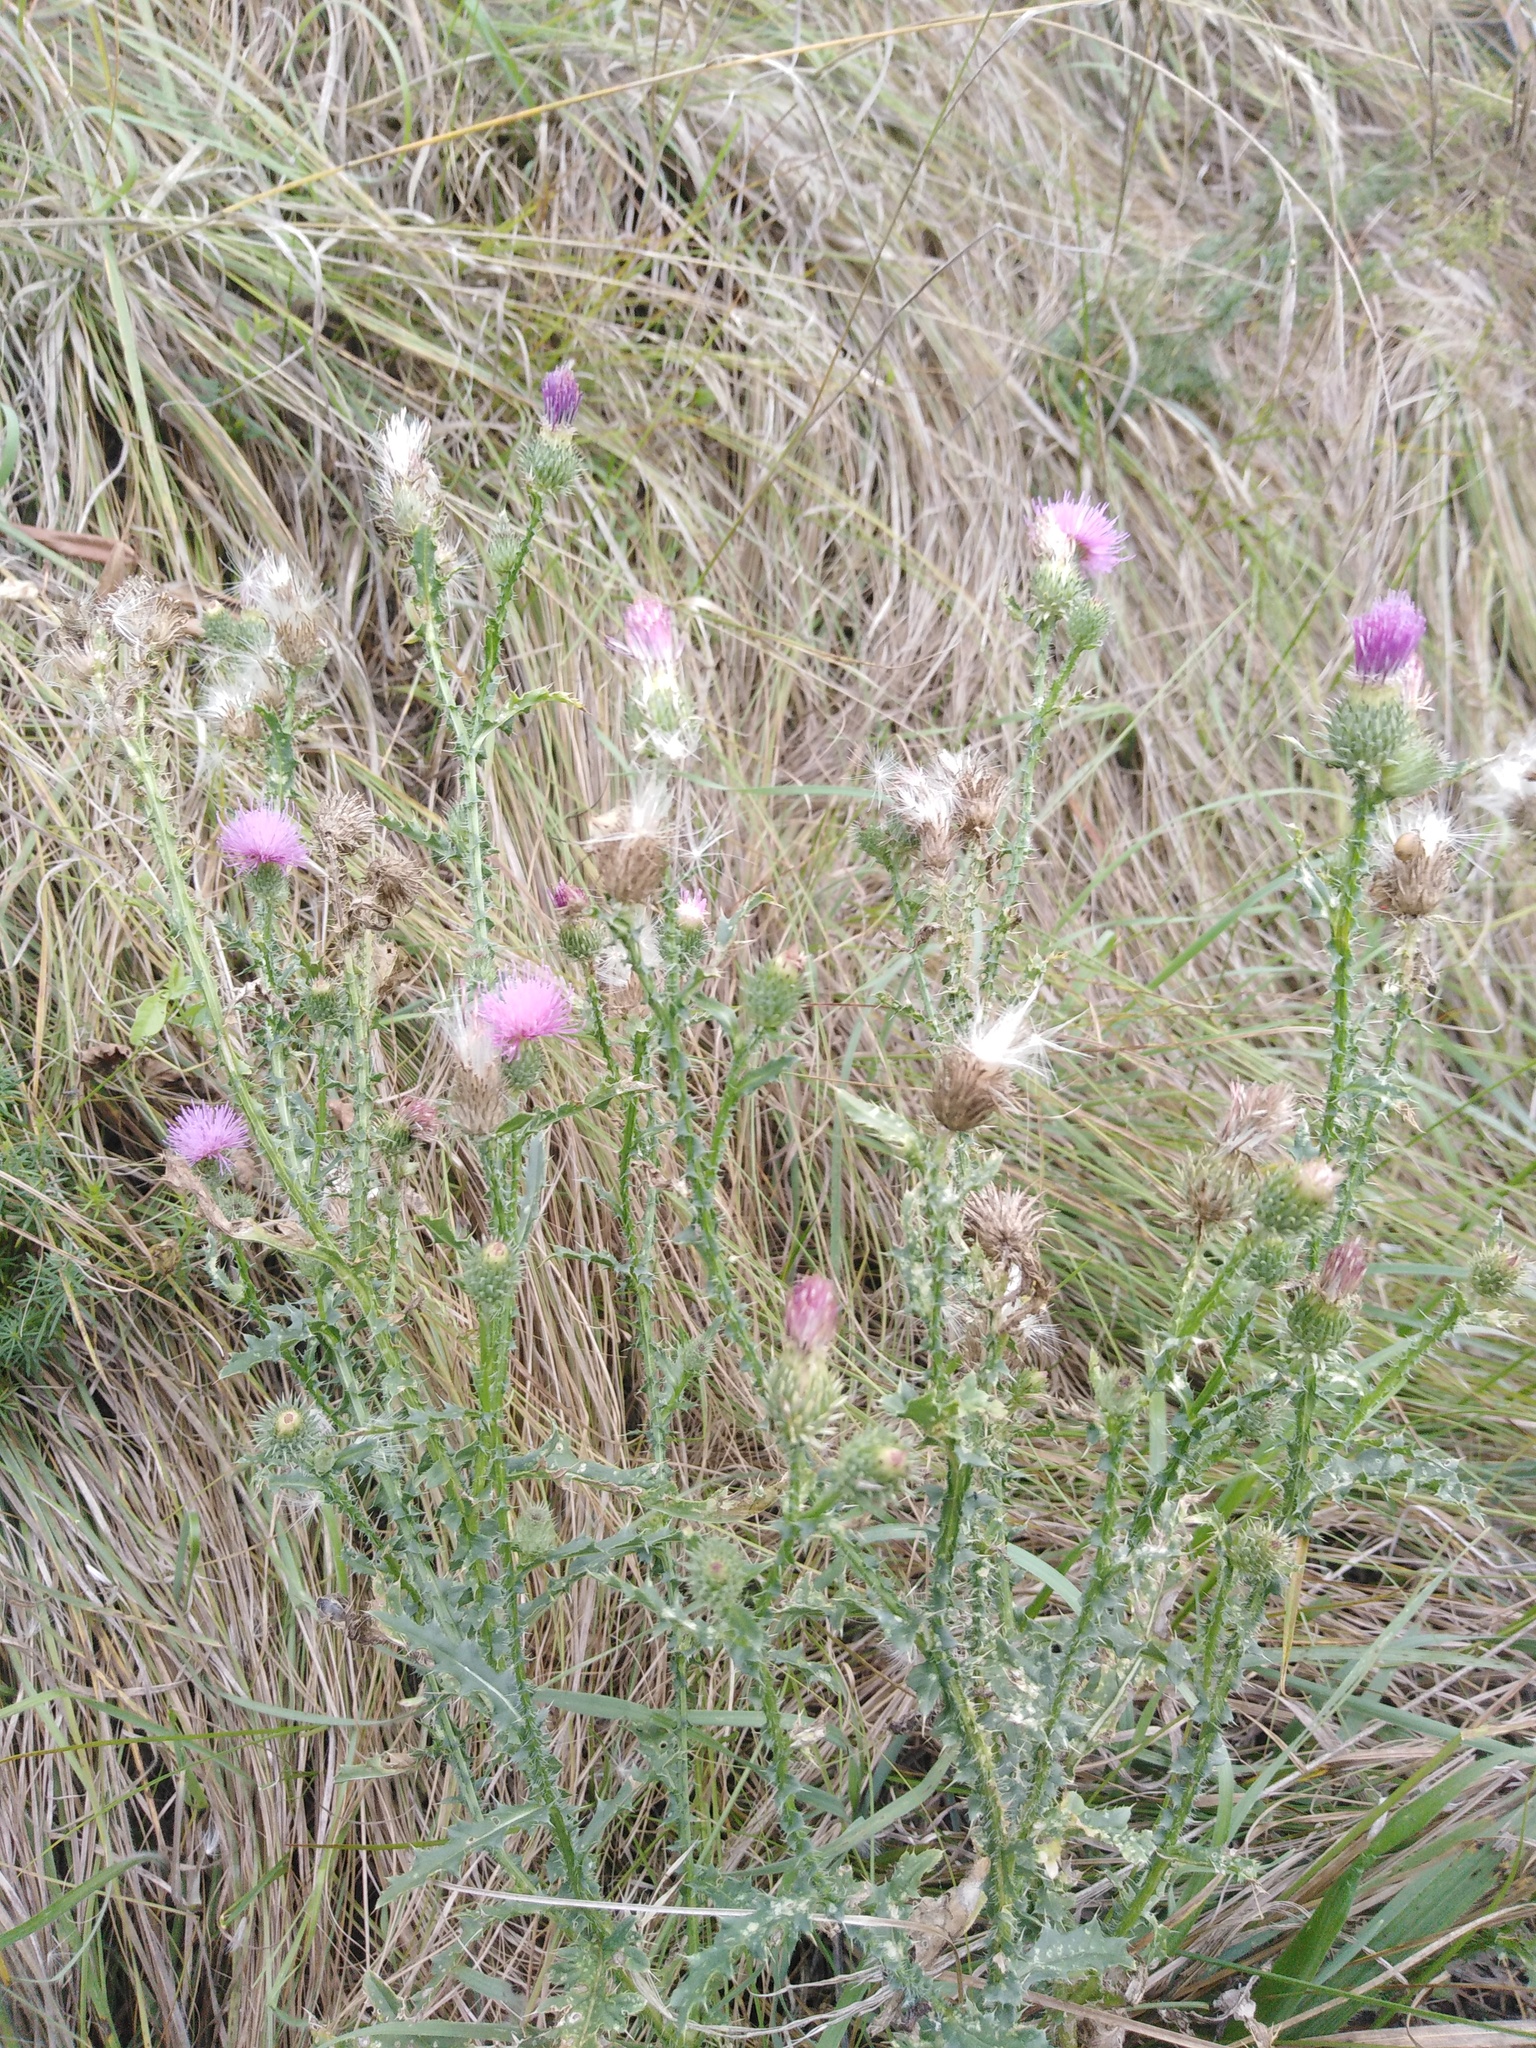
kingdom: Plantae
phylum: Tracheophyta
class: Magnoliopsida
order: Asterales
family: Asteraceae
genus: Carduus
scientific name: Carduus acanthoides
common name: Plumeless thistle
